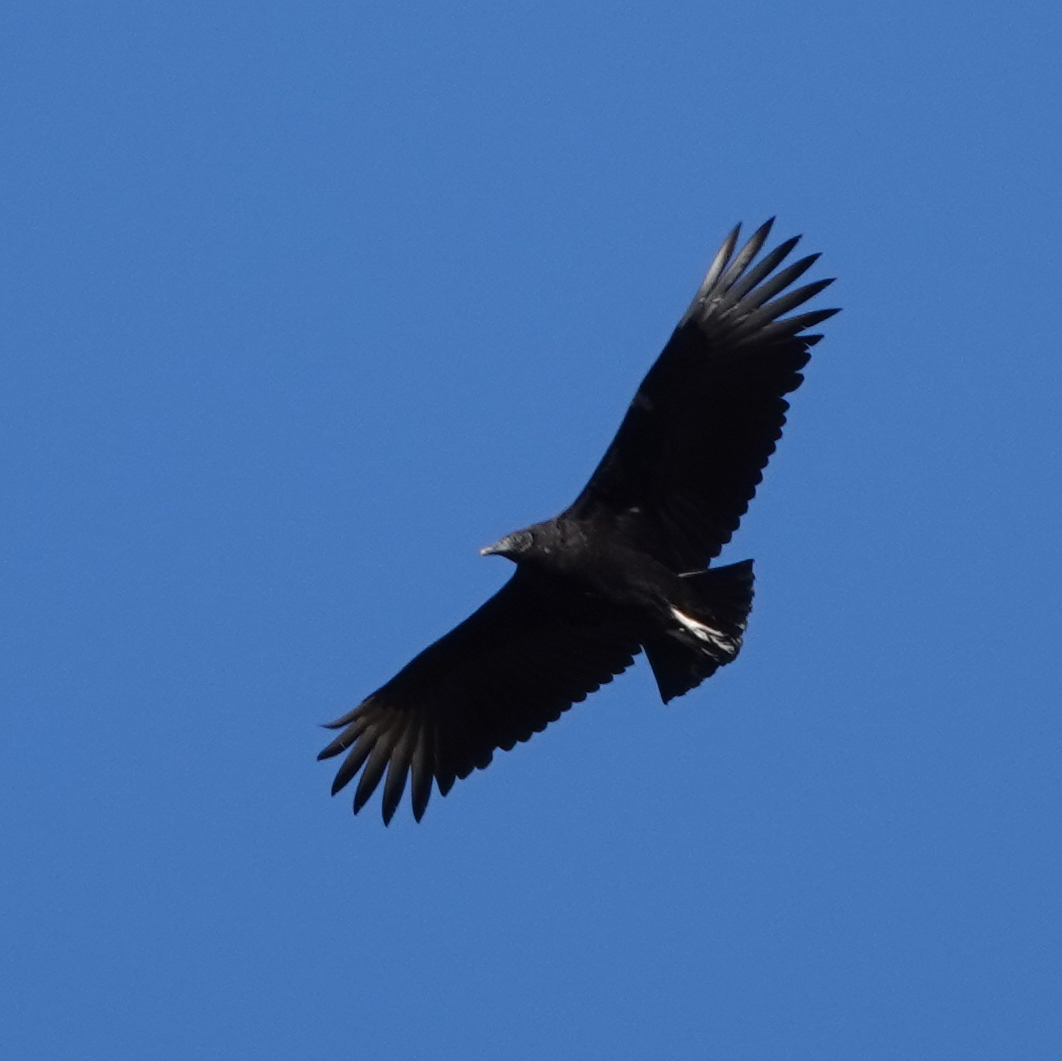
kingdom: Animalia
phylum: Chordata
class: Aves
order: Accipitriformes
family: Cathartidae
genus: Coragyps
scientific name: Coragyps atratus
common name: Black vulture
